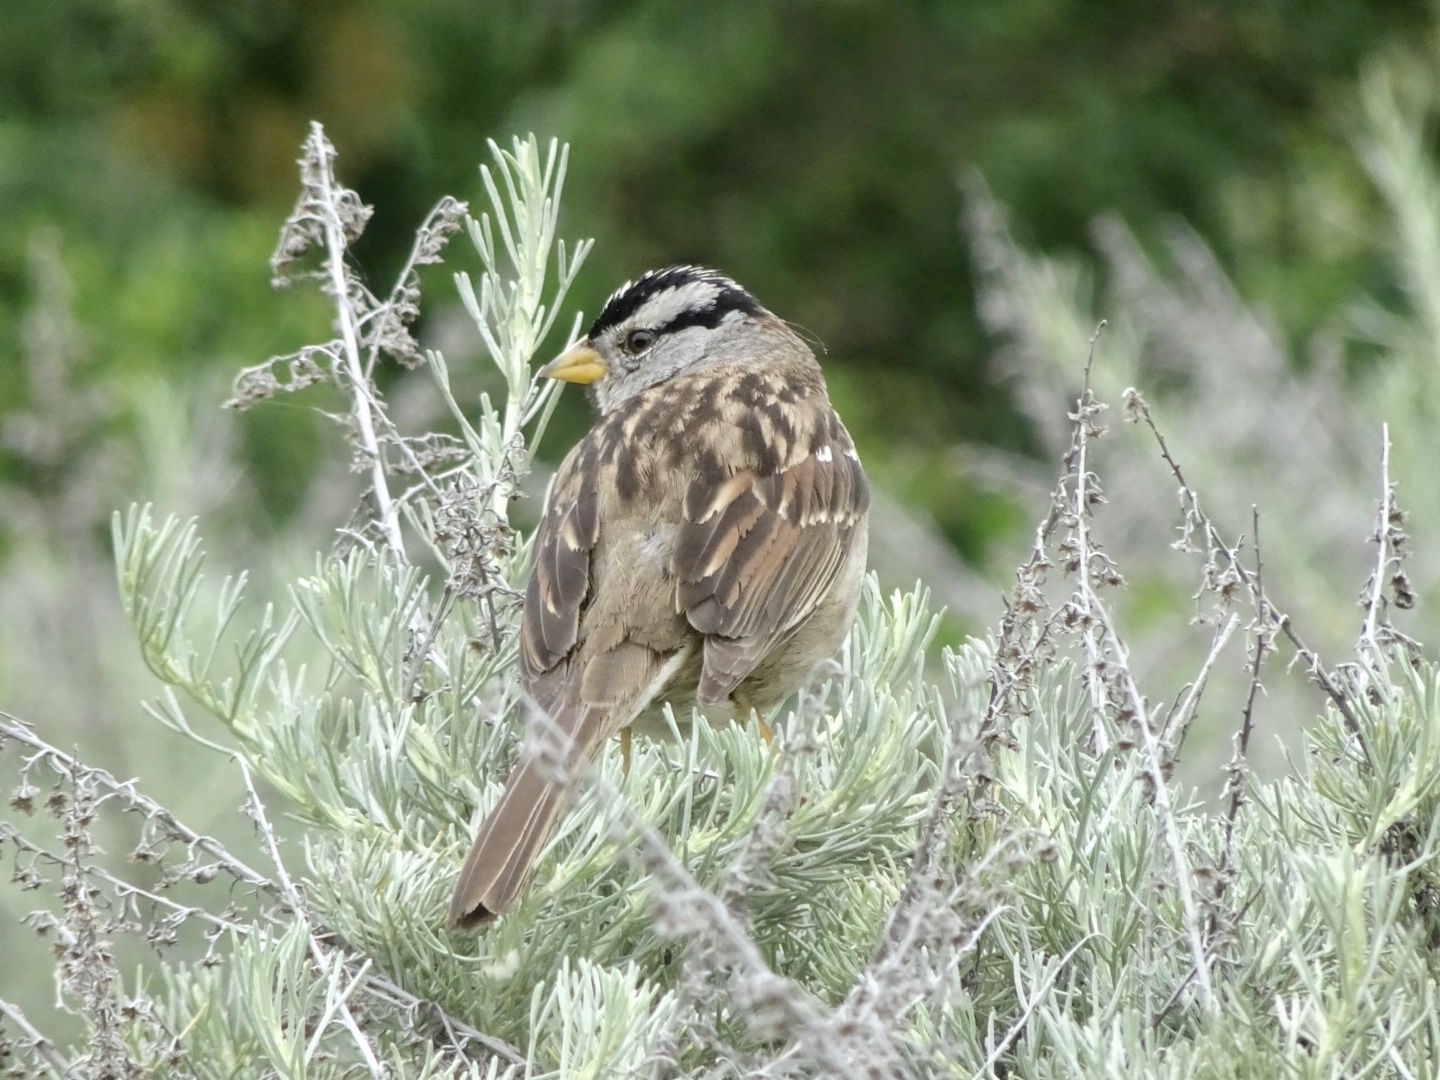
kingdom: Animalia
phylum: Chordata
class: Aves
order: Passeriformes
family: Passerellidae
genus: Zonotrichia
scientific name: Zonotrichia leucophrys
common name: White-crowned sparrow
